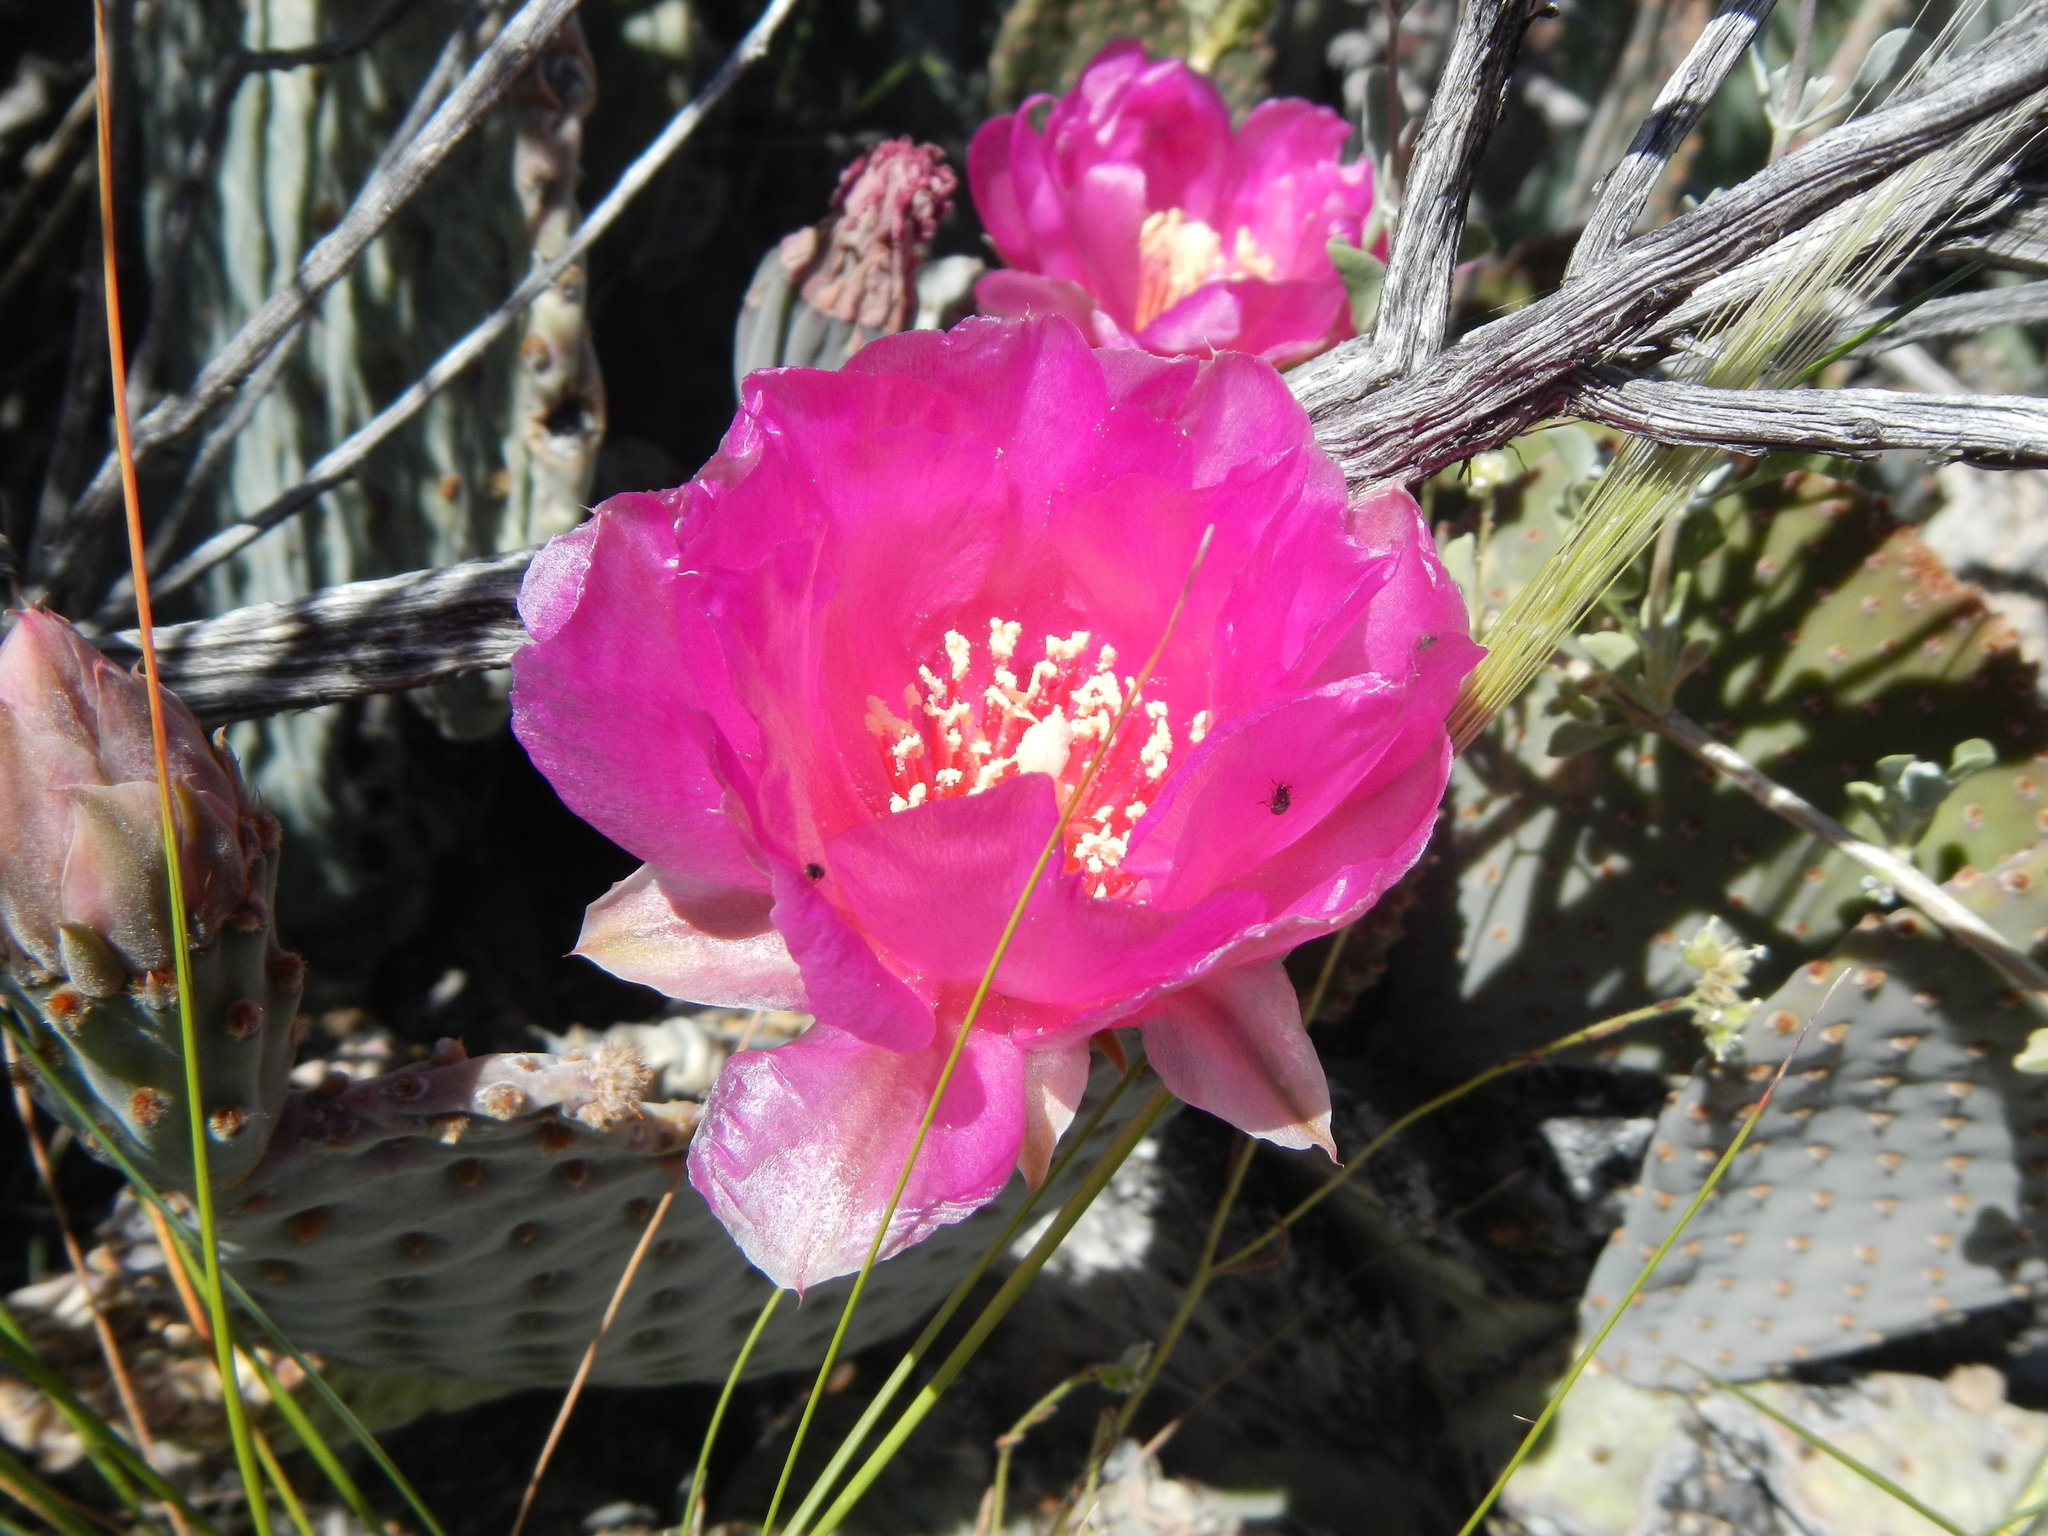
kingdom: Plantae
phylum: Tracheophyta
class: Magnoliopsida
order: Caryophyllales
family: Cactaceae
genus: Opuntia
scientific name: Opuntia basilaris
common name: Beavertail prickly-pear
